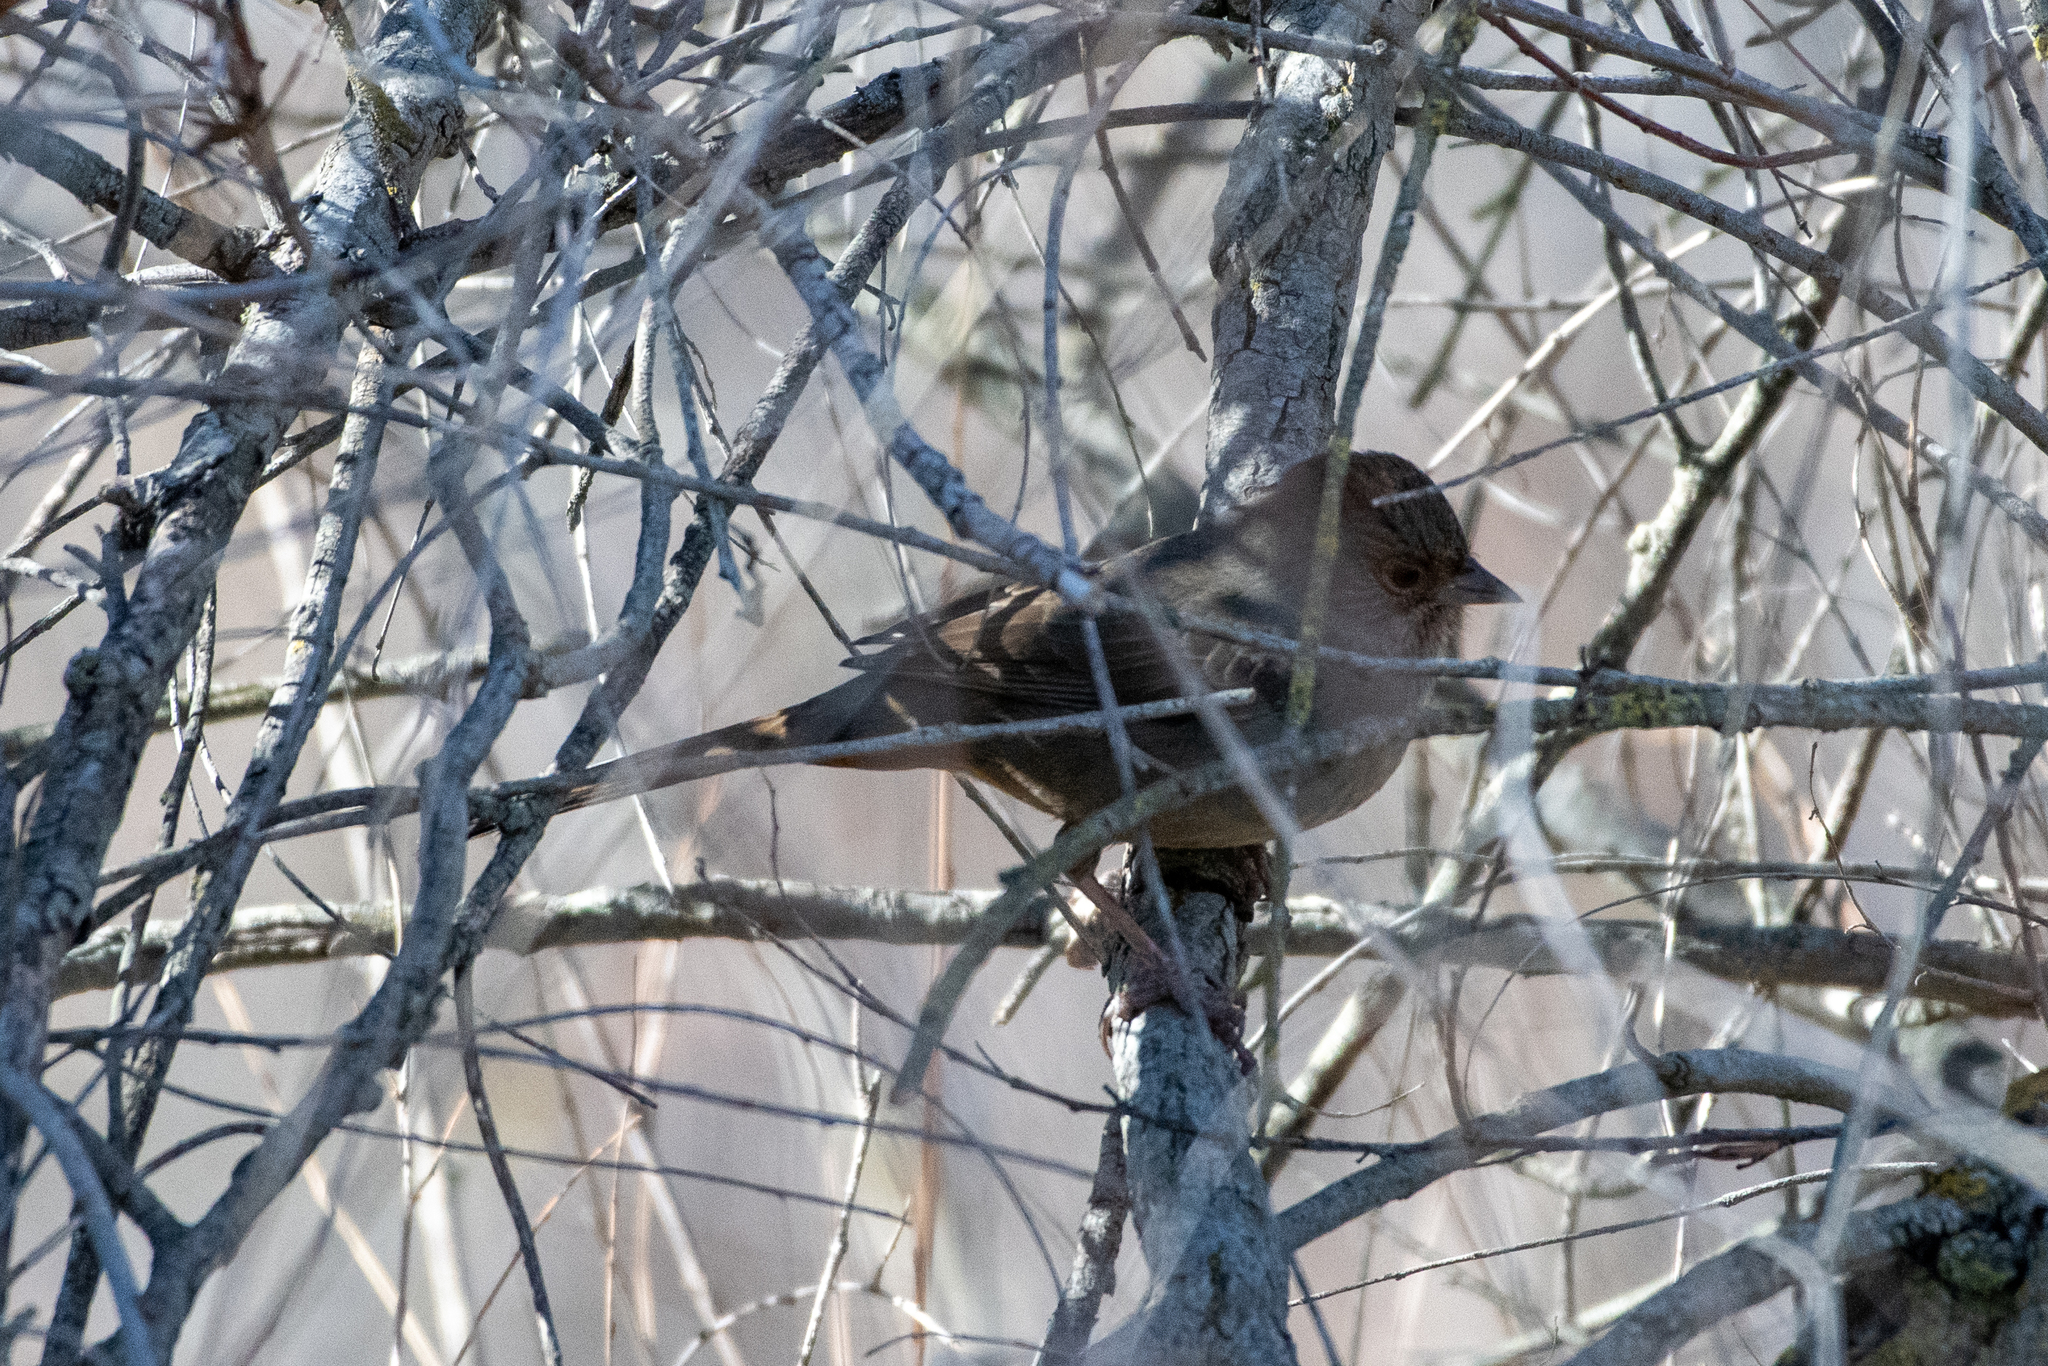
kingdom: Animalia
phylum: Chordata
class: Aves
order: Passeriformes
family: Passerellidae
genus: Melozone
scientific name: Melozone crissalis
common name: California towhee
